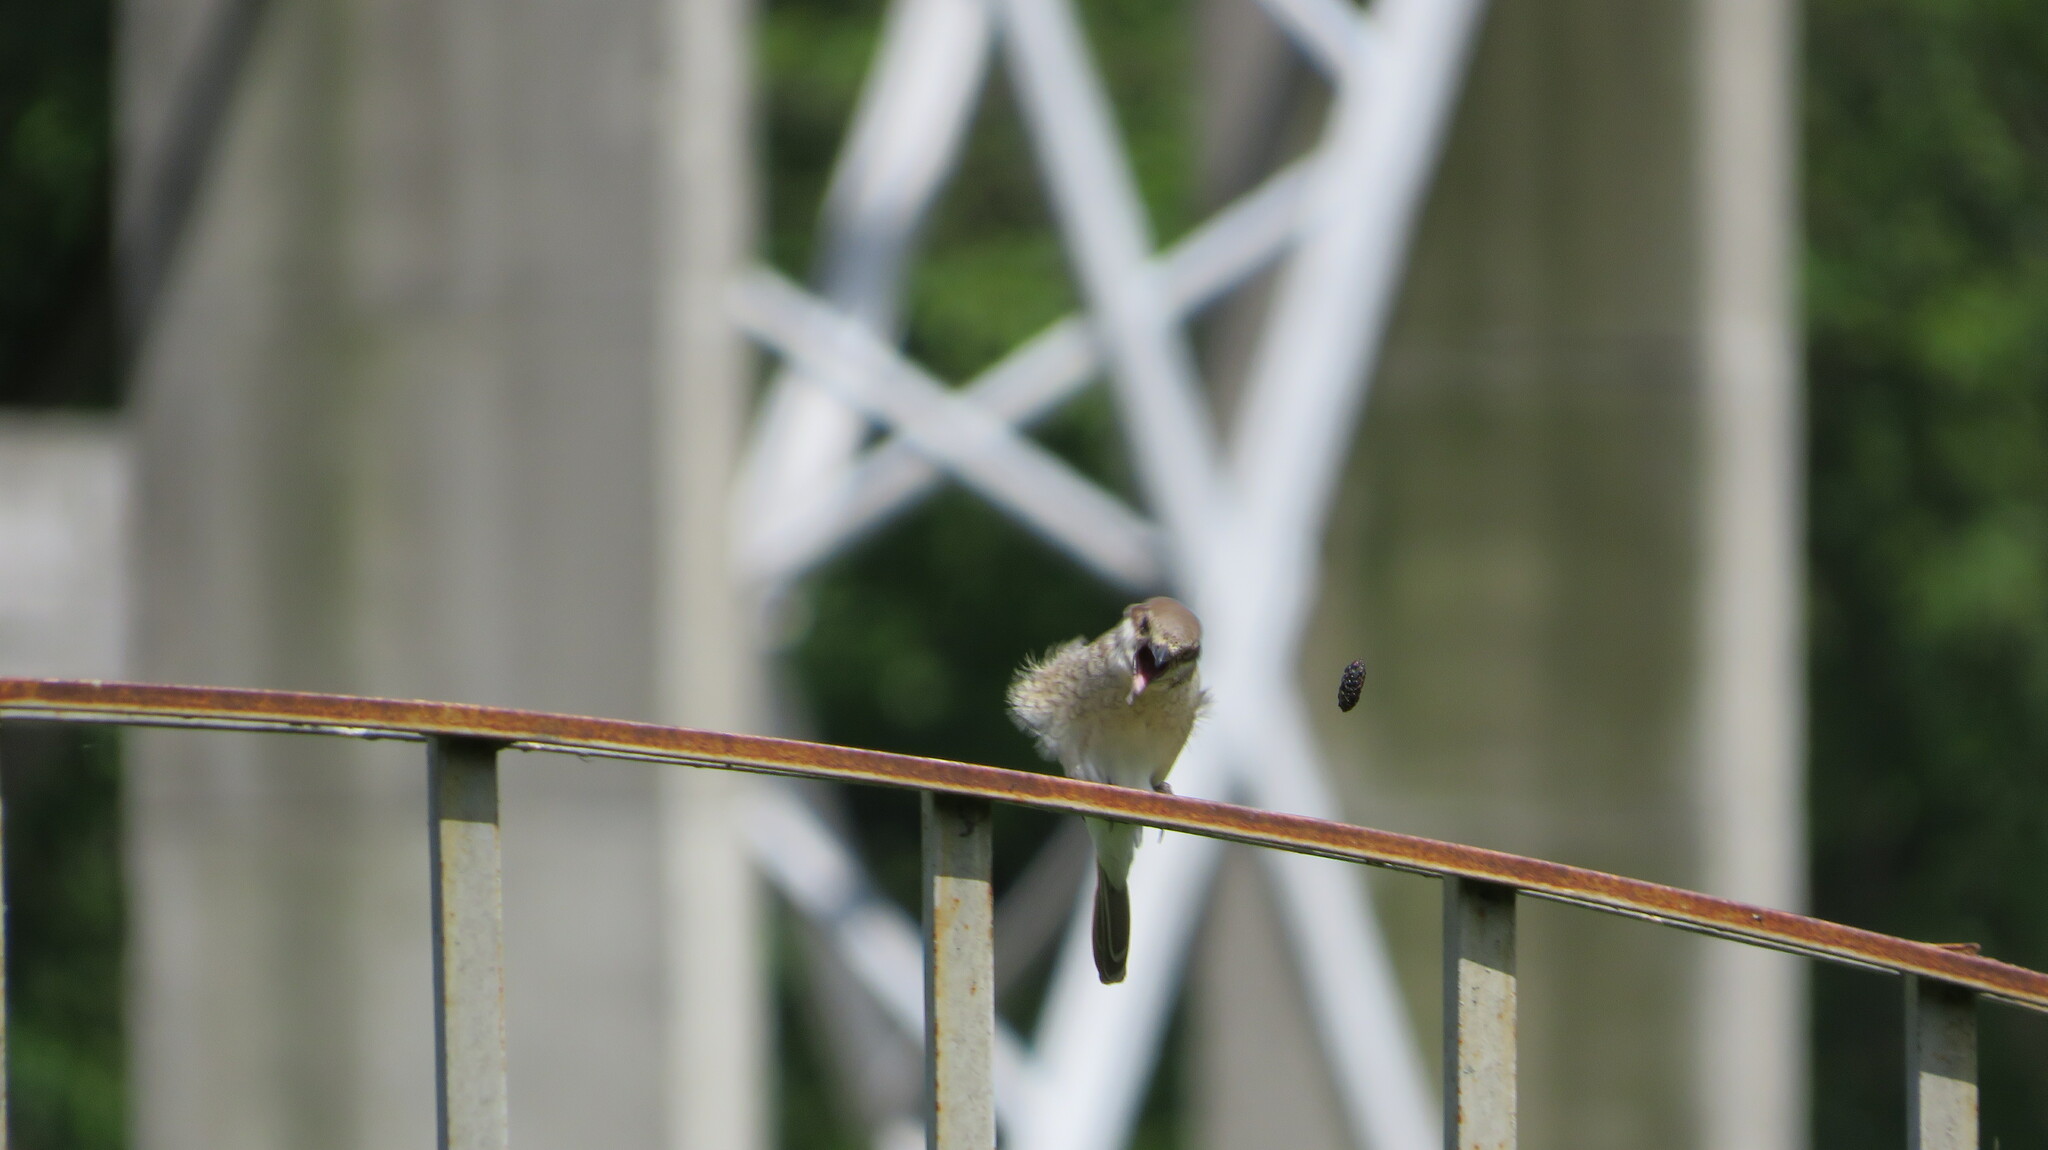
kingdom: Animalia
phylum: Chordata
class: Aves
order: Passeriformes
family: Laniidae
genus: Lanius
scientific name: Lanius collurio
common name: Red-backed shrike
